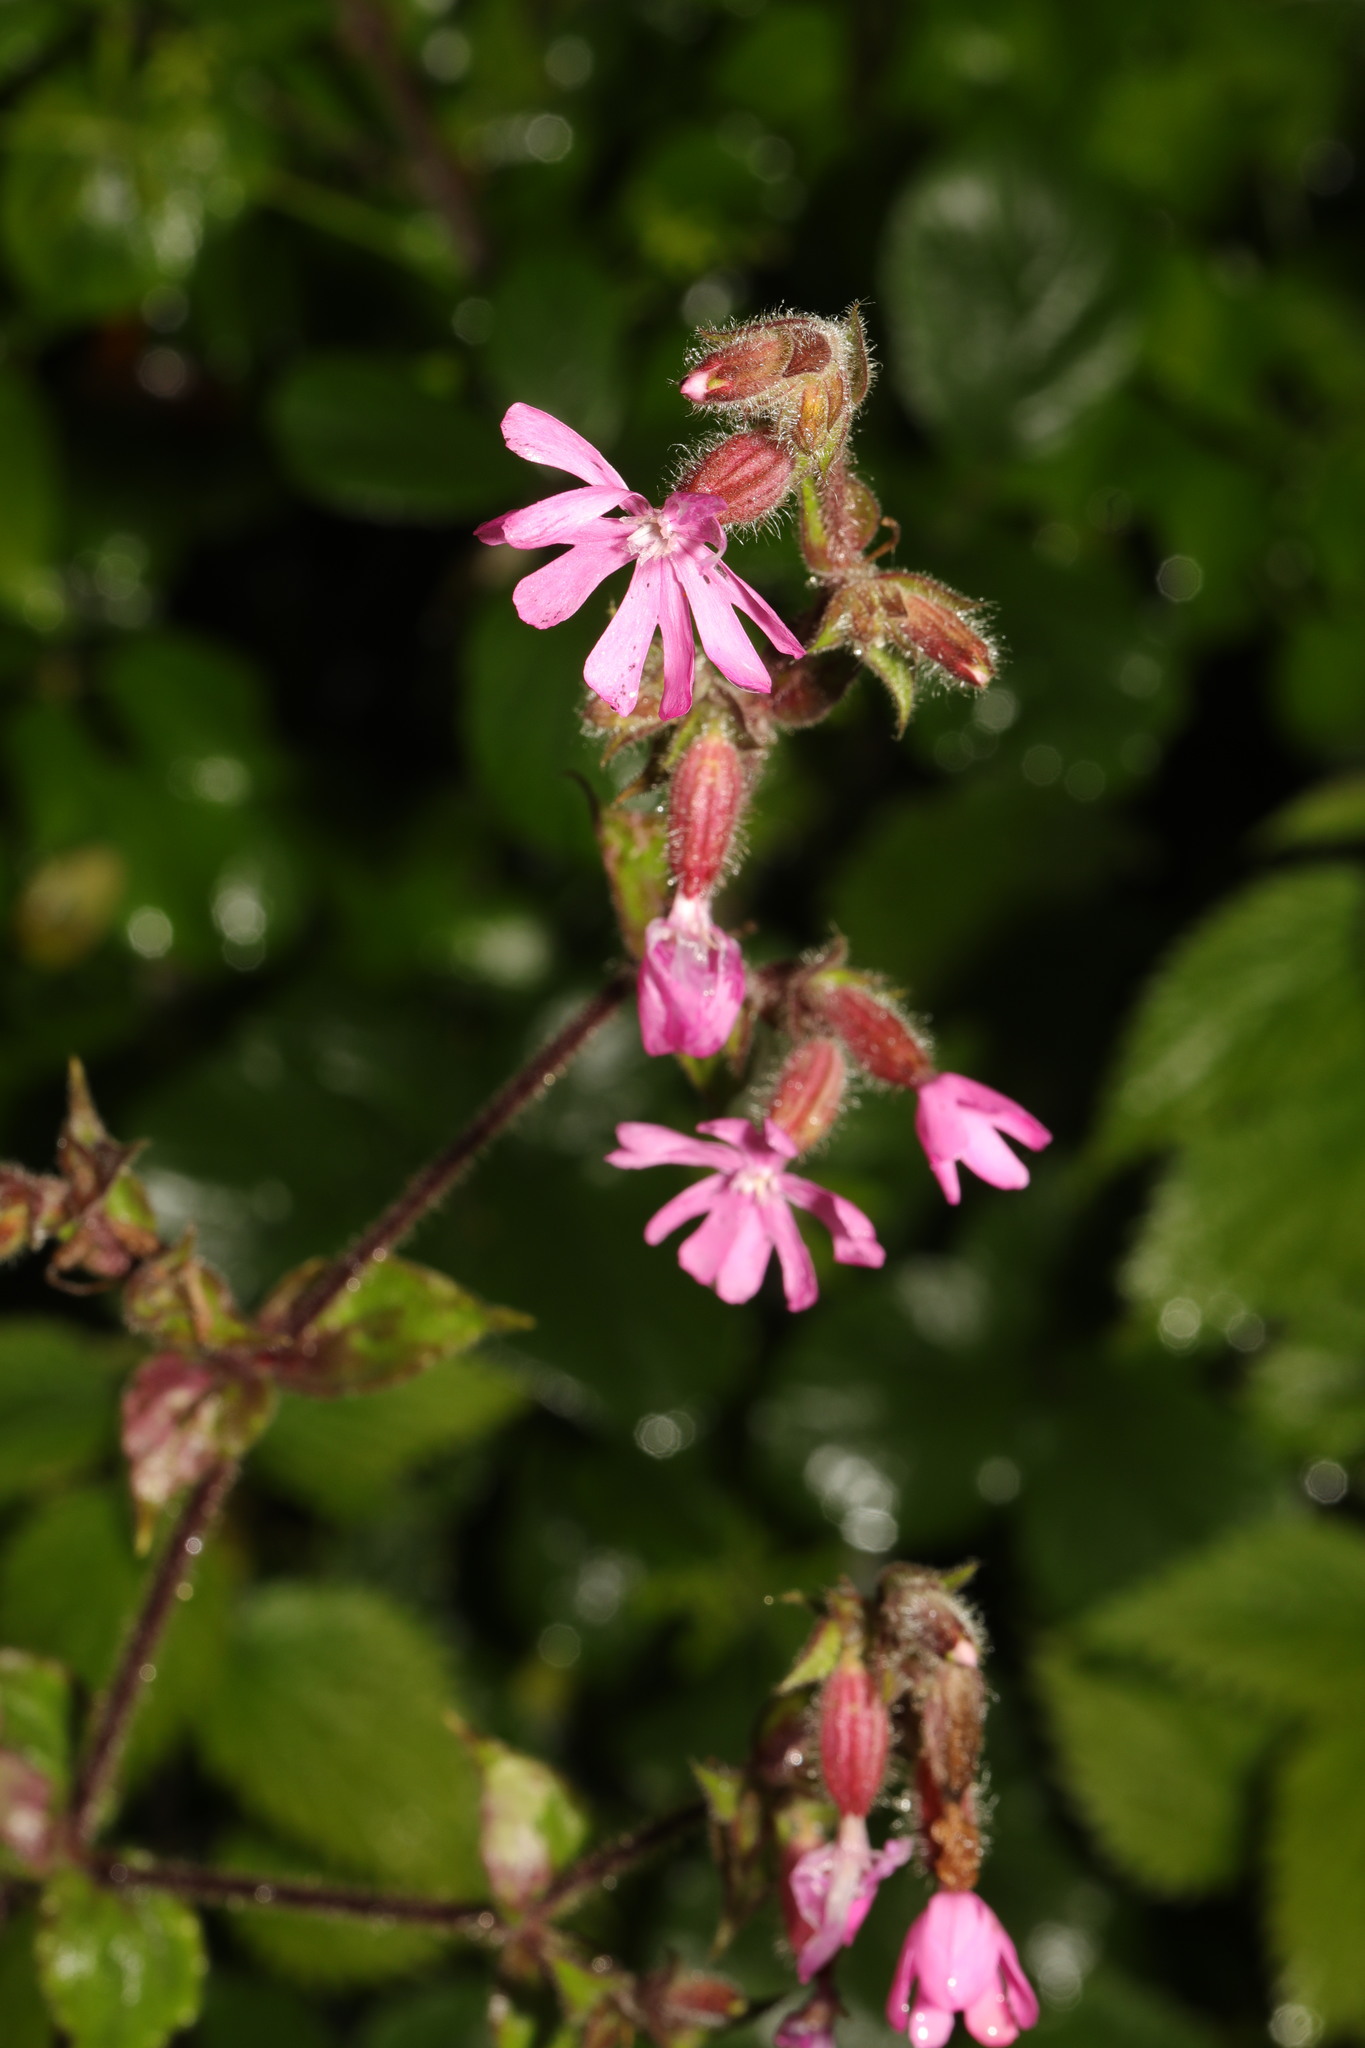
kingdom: Plantae
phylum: Tracheophyta
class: Magnoliopsida
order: Caryophyllales
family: Caryophyllaceae
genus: Silene
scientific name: Silene dioica
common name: Red campion
